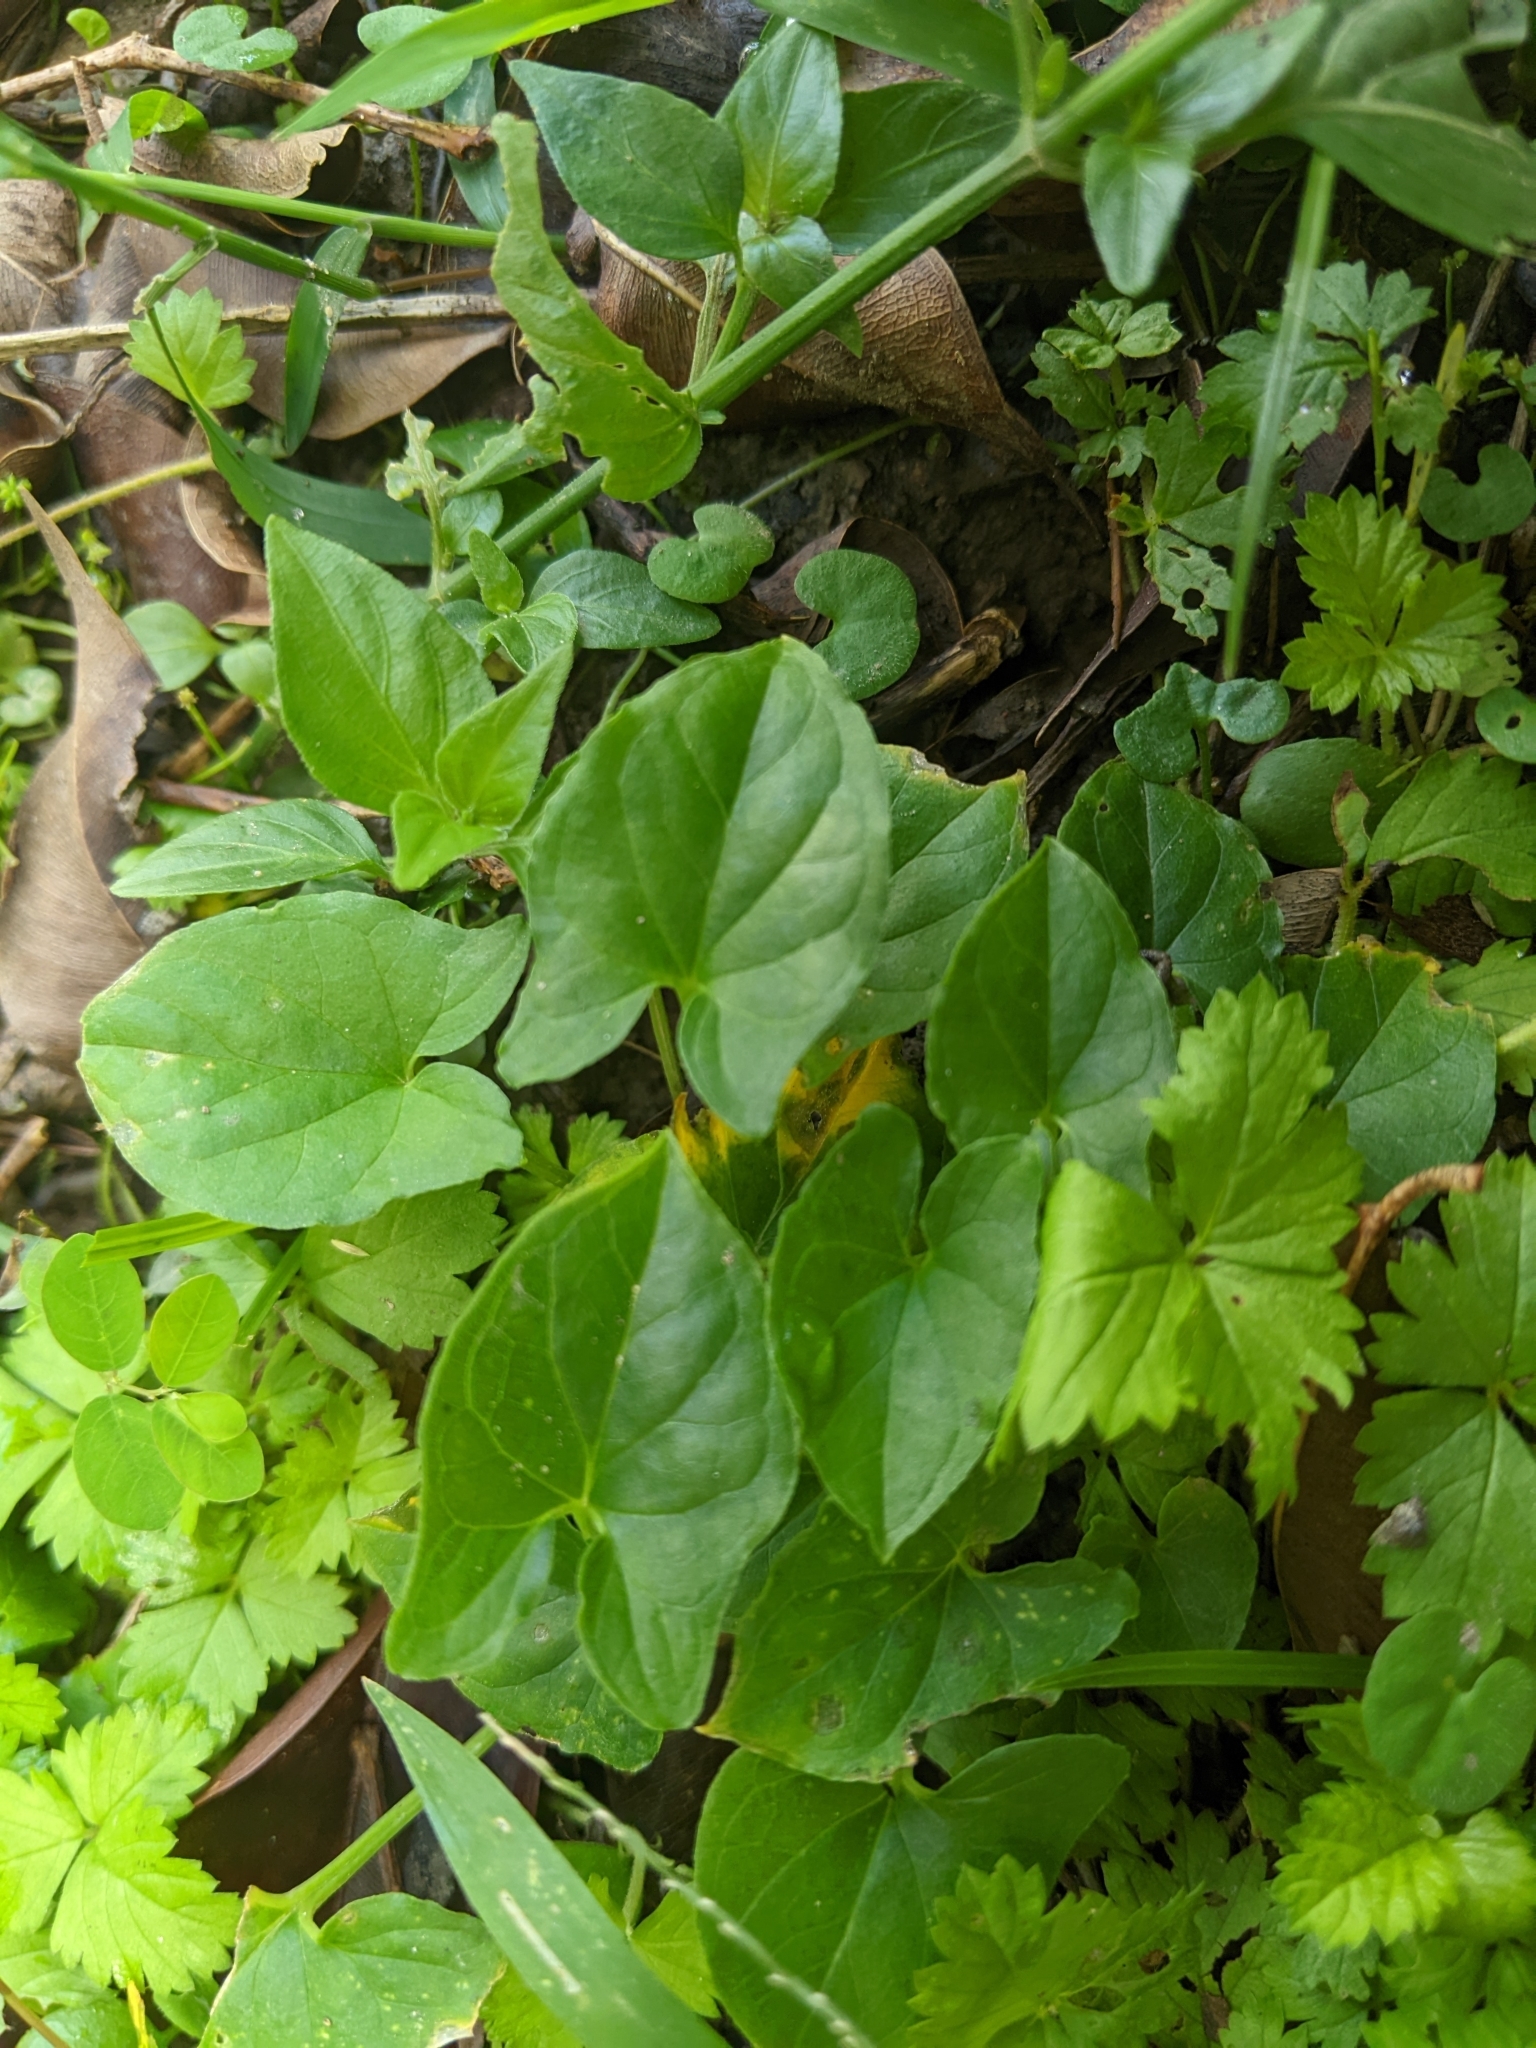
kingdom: Plantae
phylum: Tracheophyta
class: Liliopsida
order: Alismatales
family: Araceae
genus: Typhonium
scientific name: Typhonium blumei
